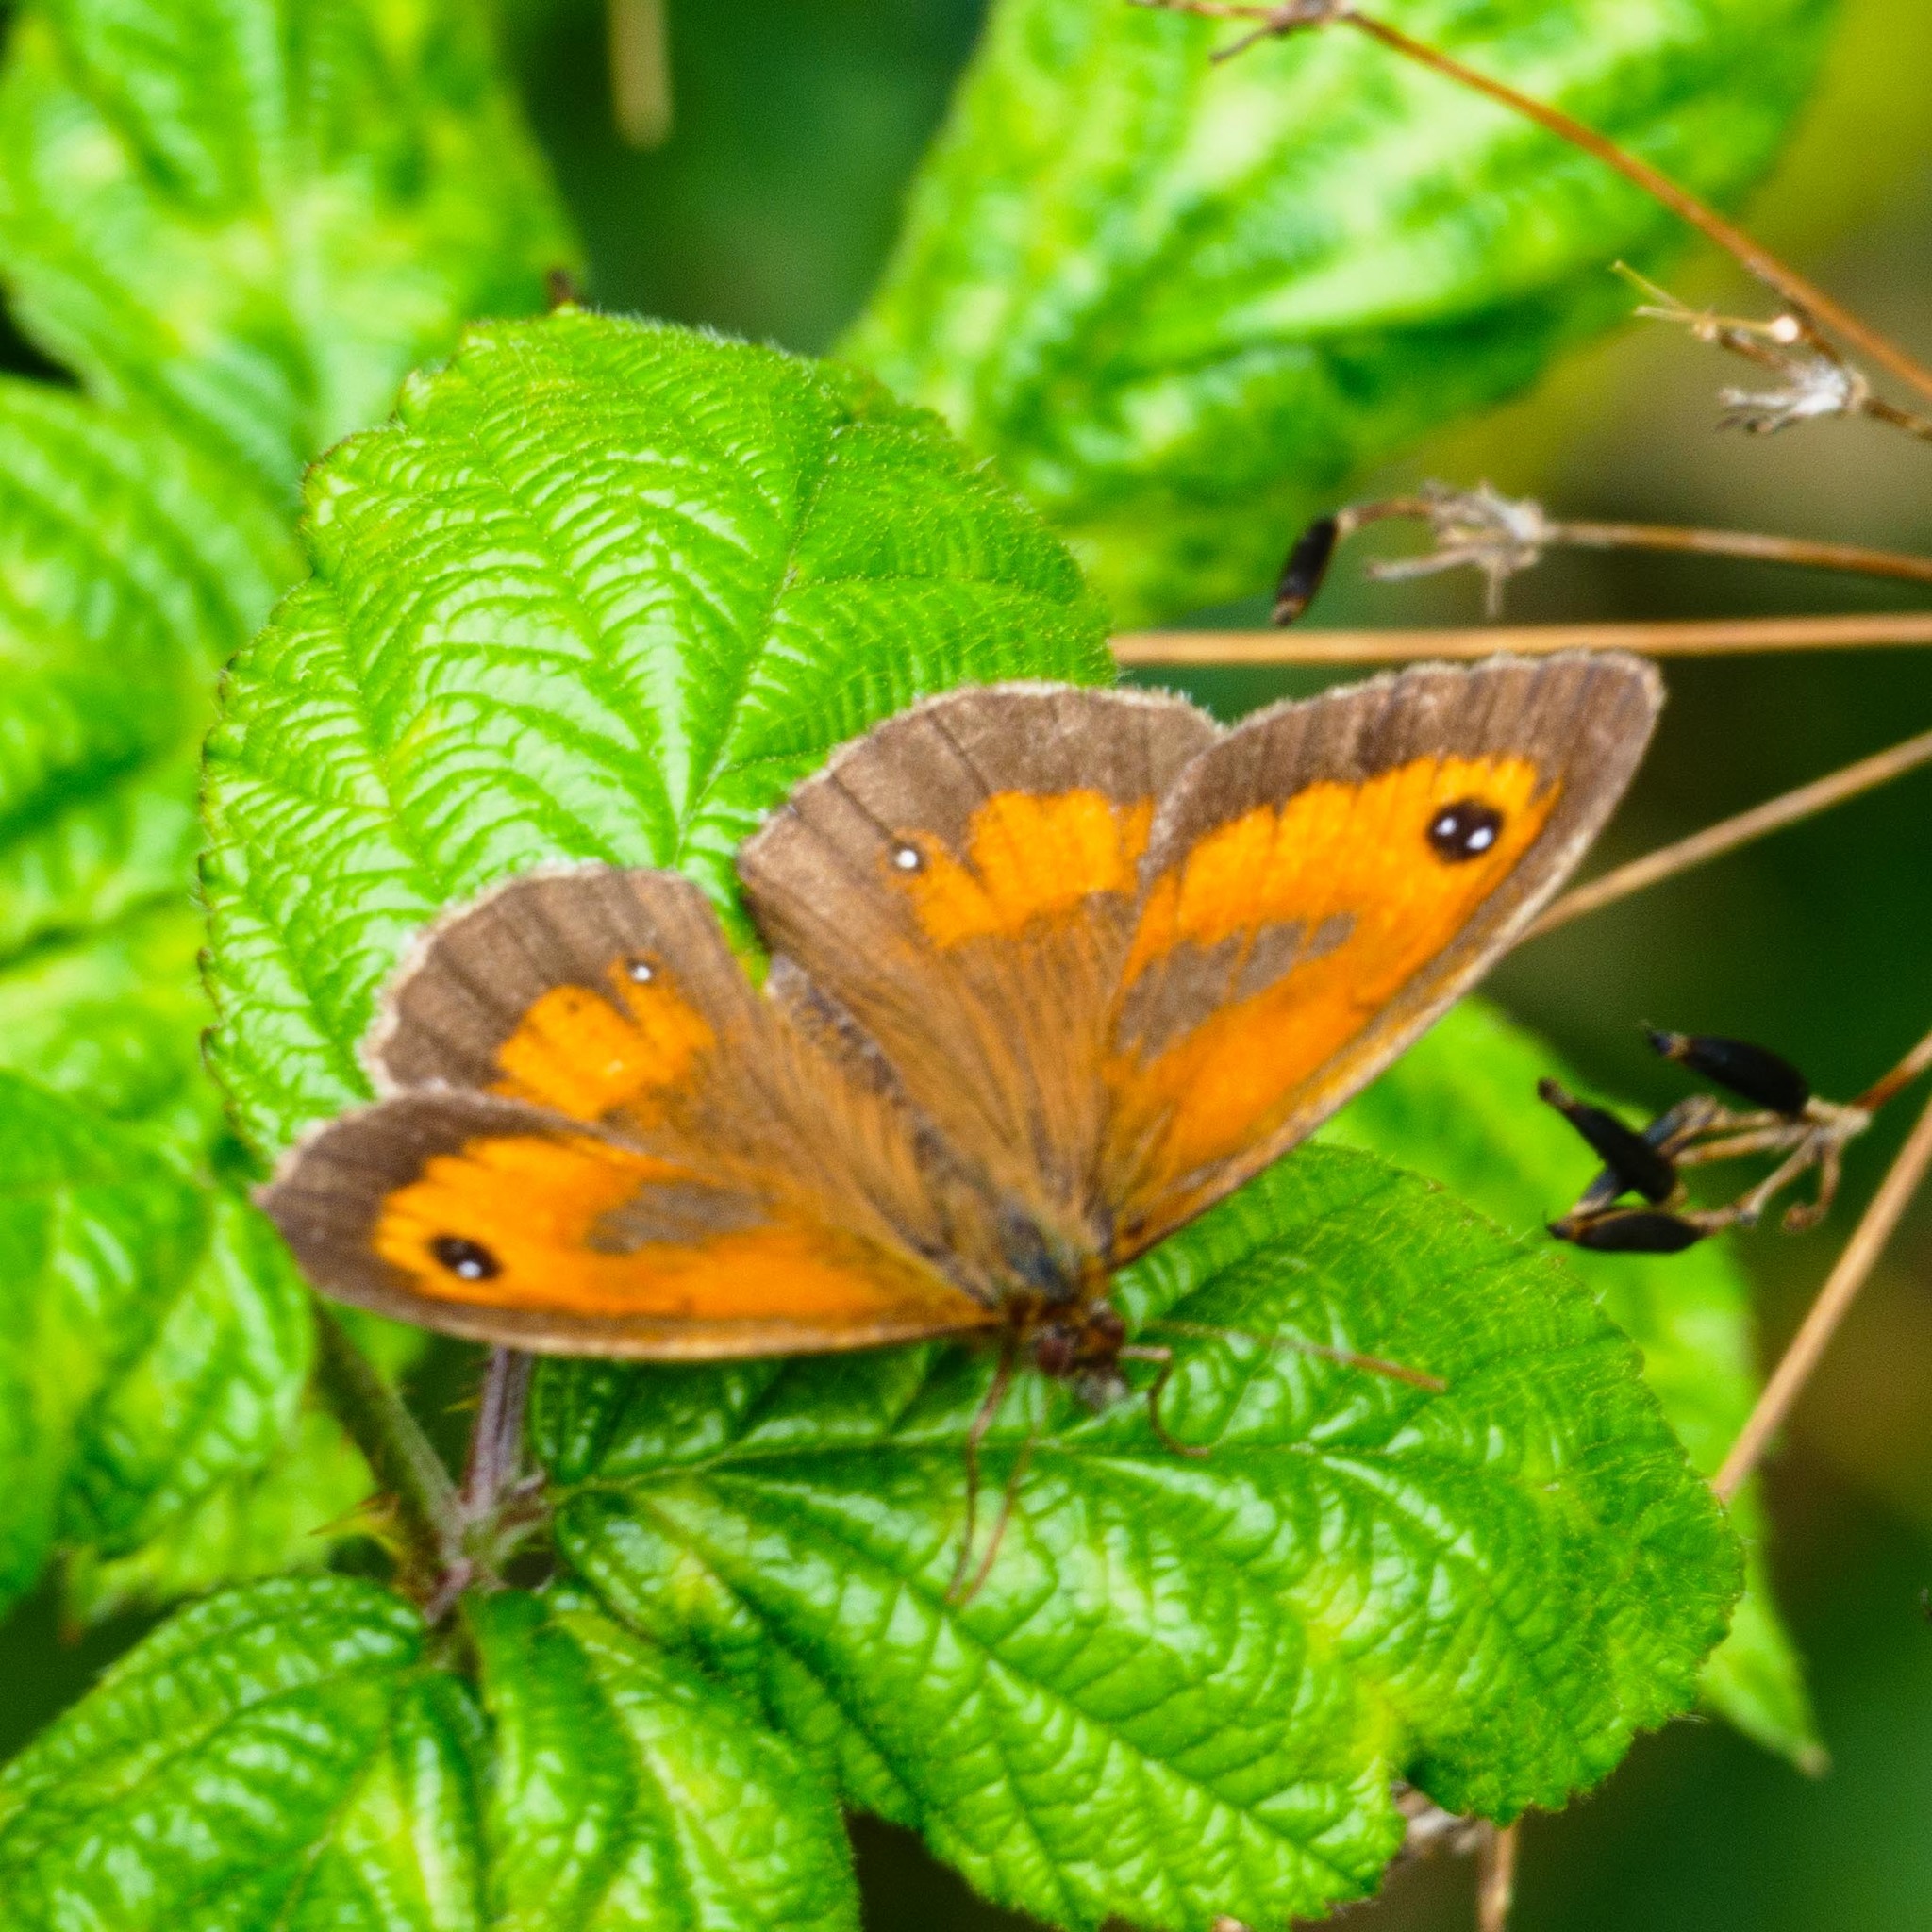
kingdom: Animalia
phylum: Arthropoda
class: Insecta
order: Lepidoptera
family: Nymphalidae
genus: Pyronia
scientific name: Pyronia tithonus
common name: Gatekeeper
